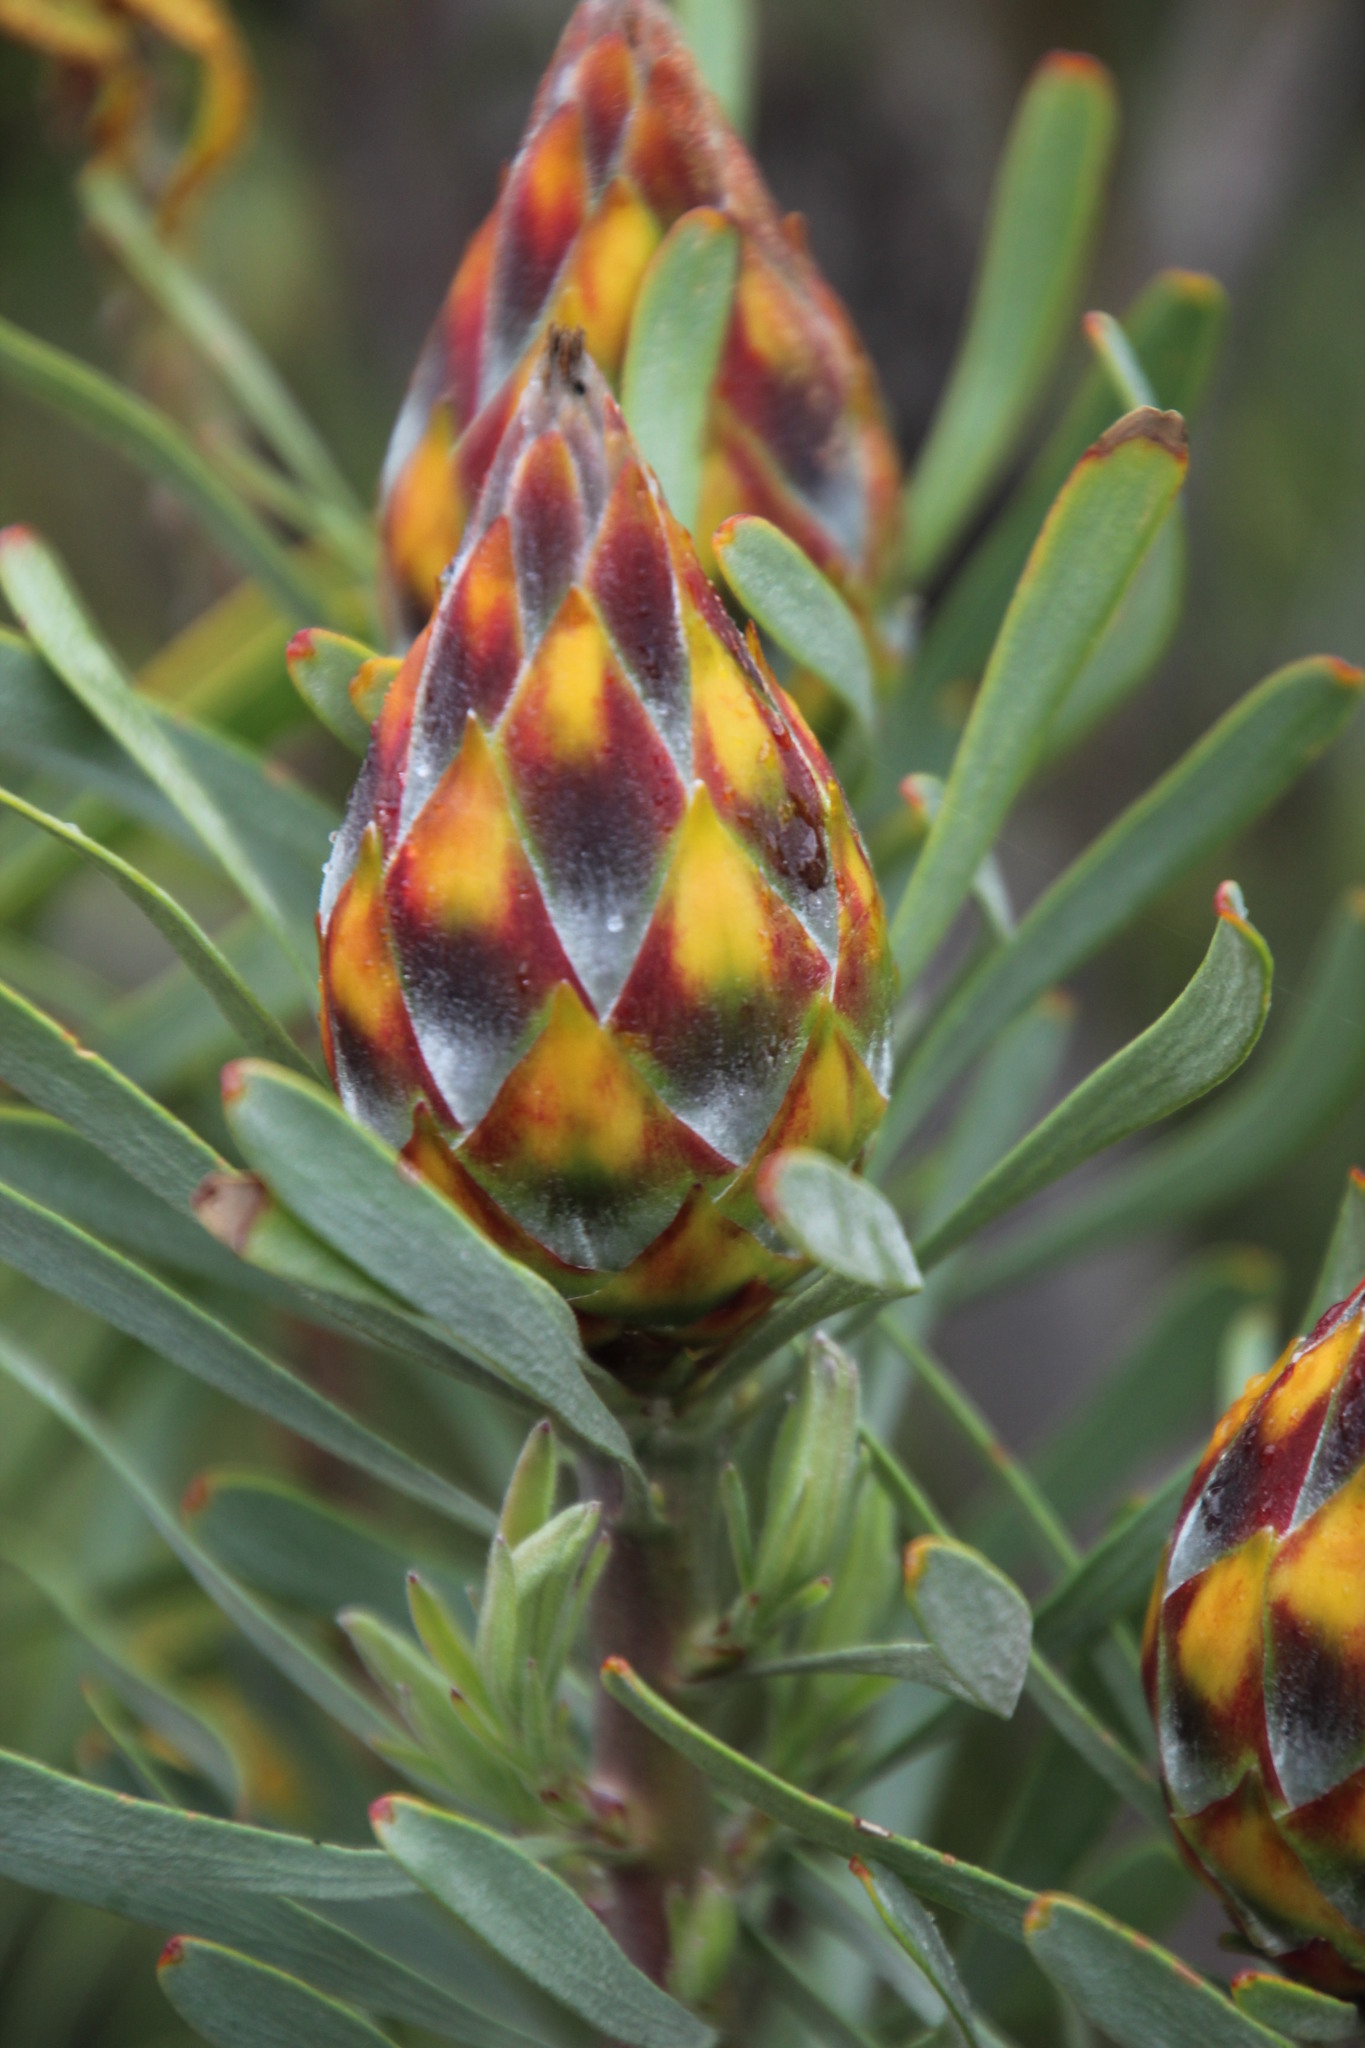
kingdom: Plantae
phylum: Tracheophyta
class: Magnoliopsida
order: Proteales
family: Proteaceae
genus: Leucadendron
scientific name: Leucadendron rubrum
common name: Spinning top
